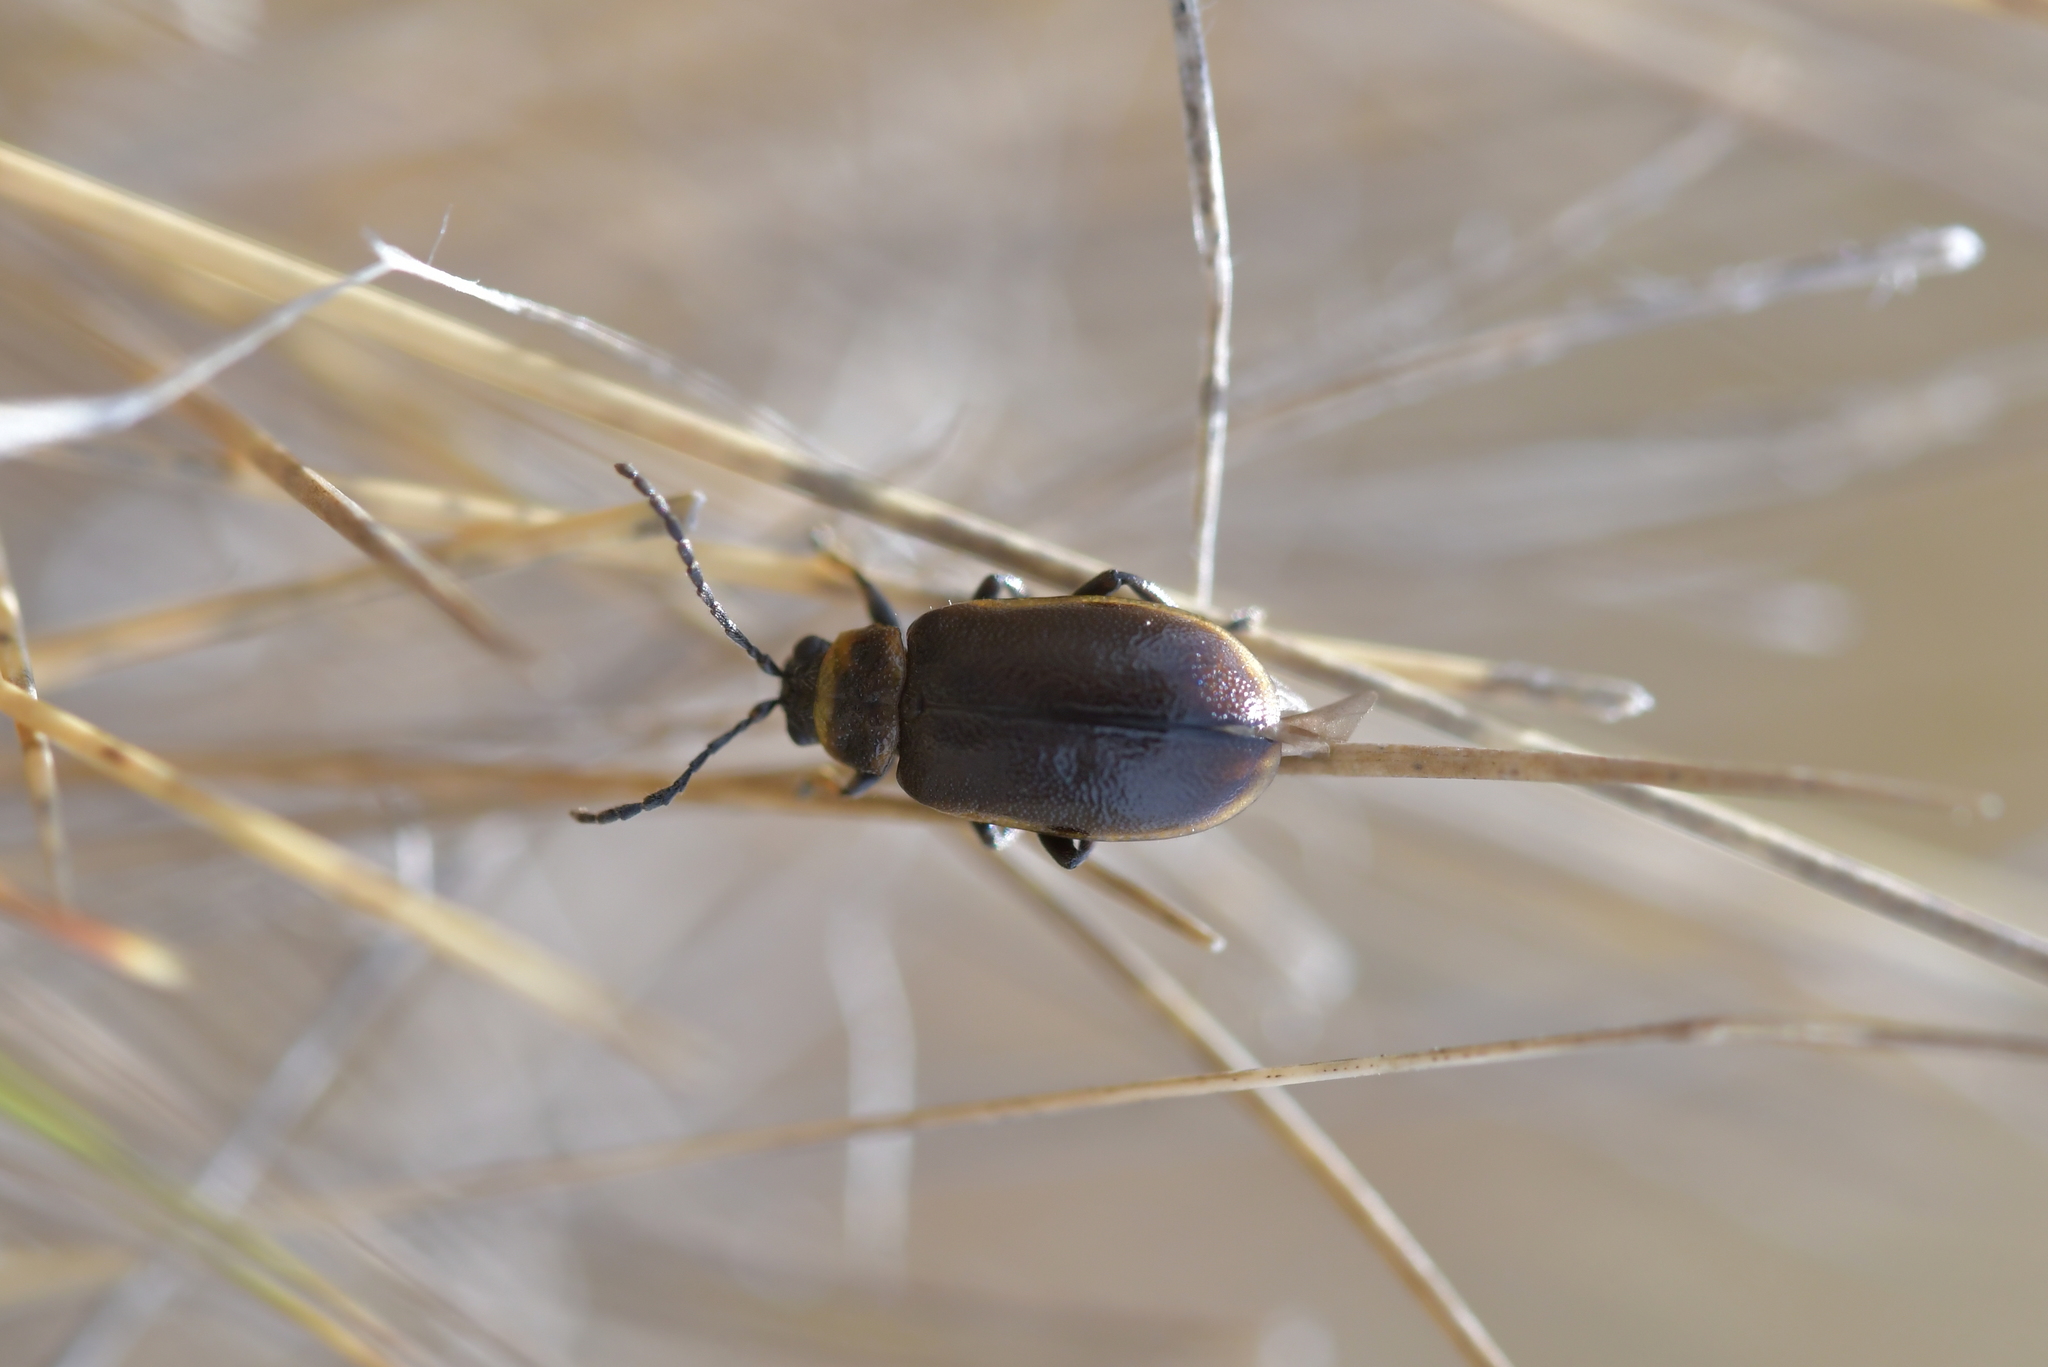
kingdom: Animalia
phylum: Arthropoda
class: Insecta
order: Coleoptera
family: Chrysomelidae
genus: Lochmaea
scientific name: Lochmaea suturalis
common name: Heather beetle
